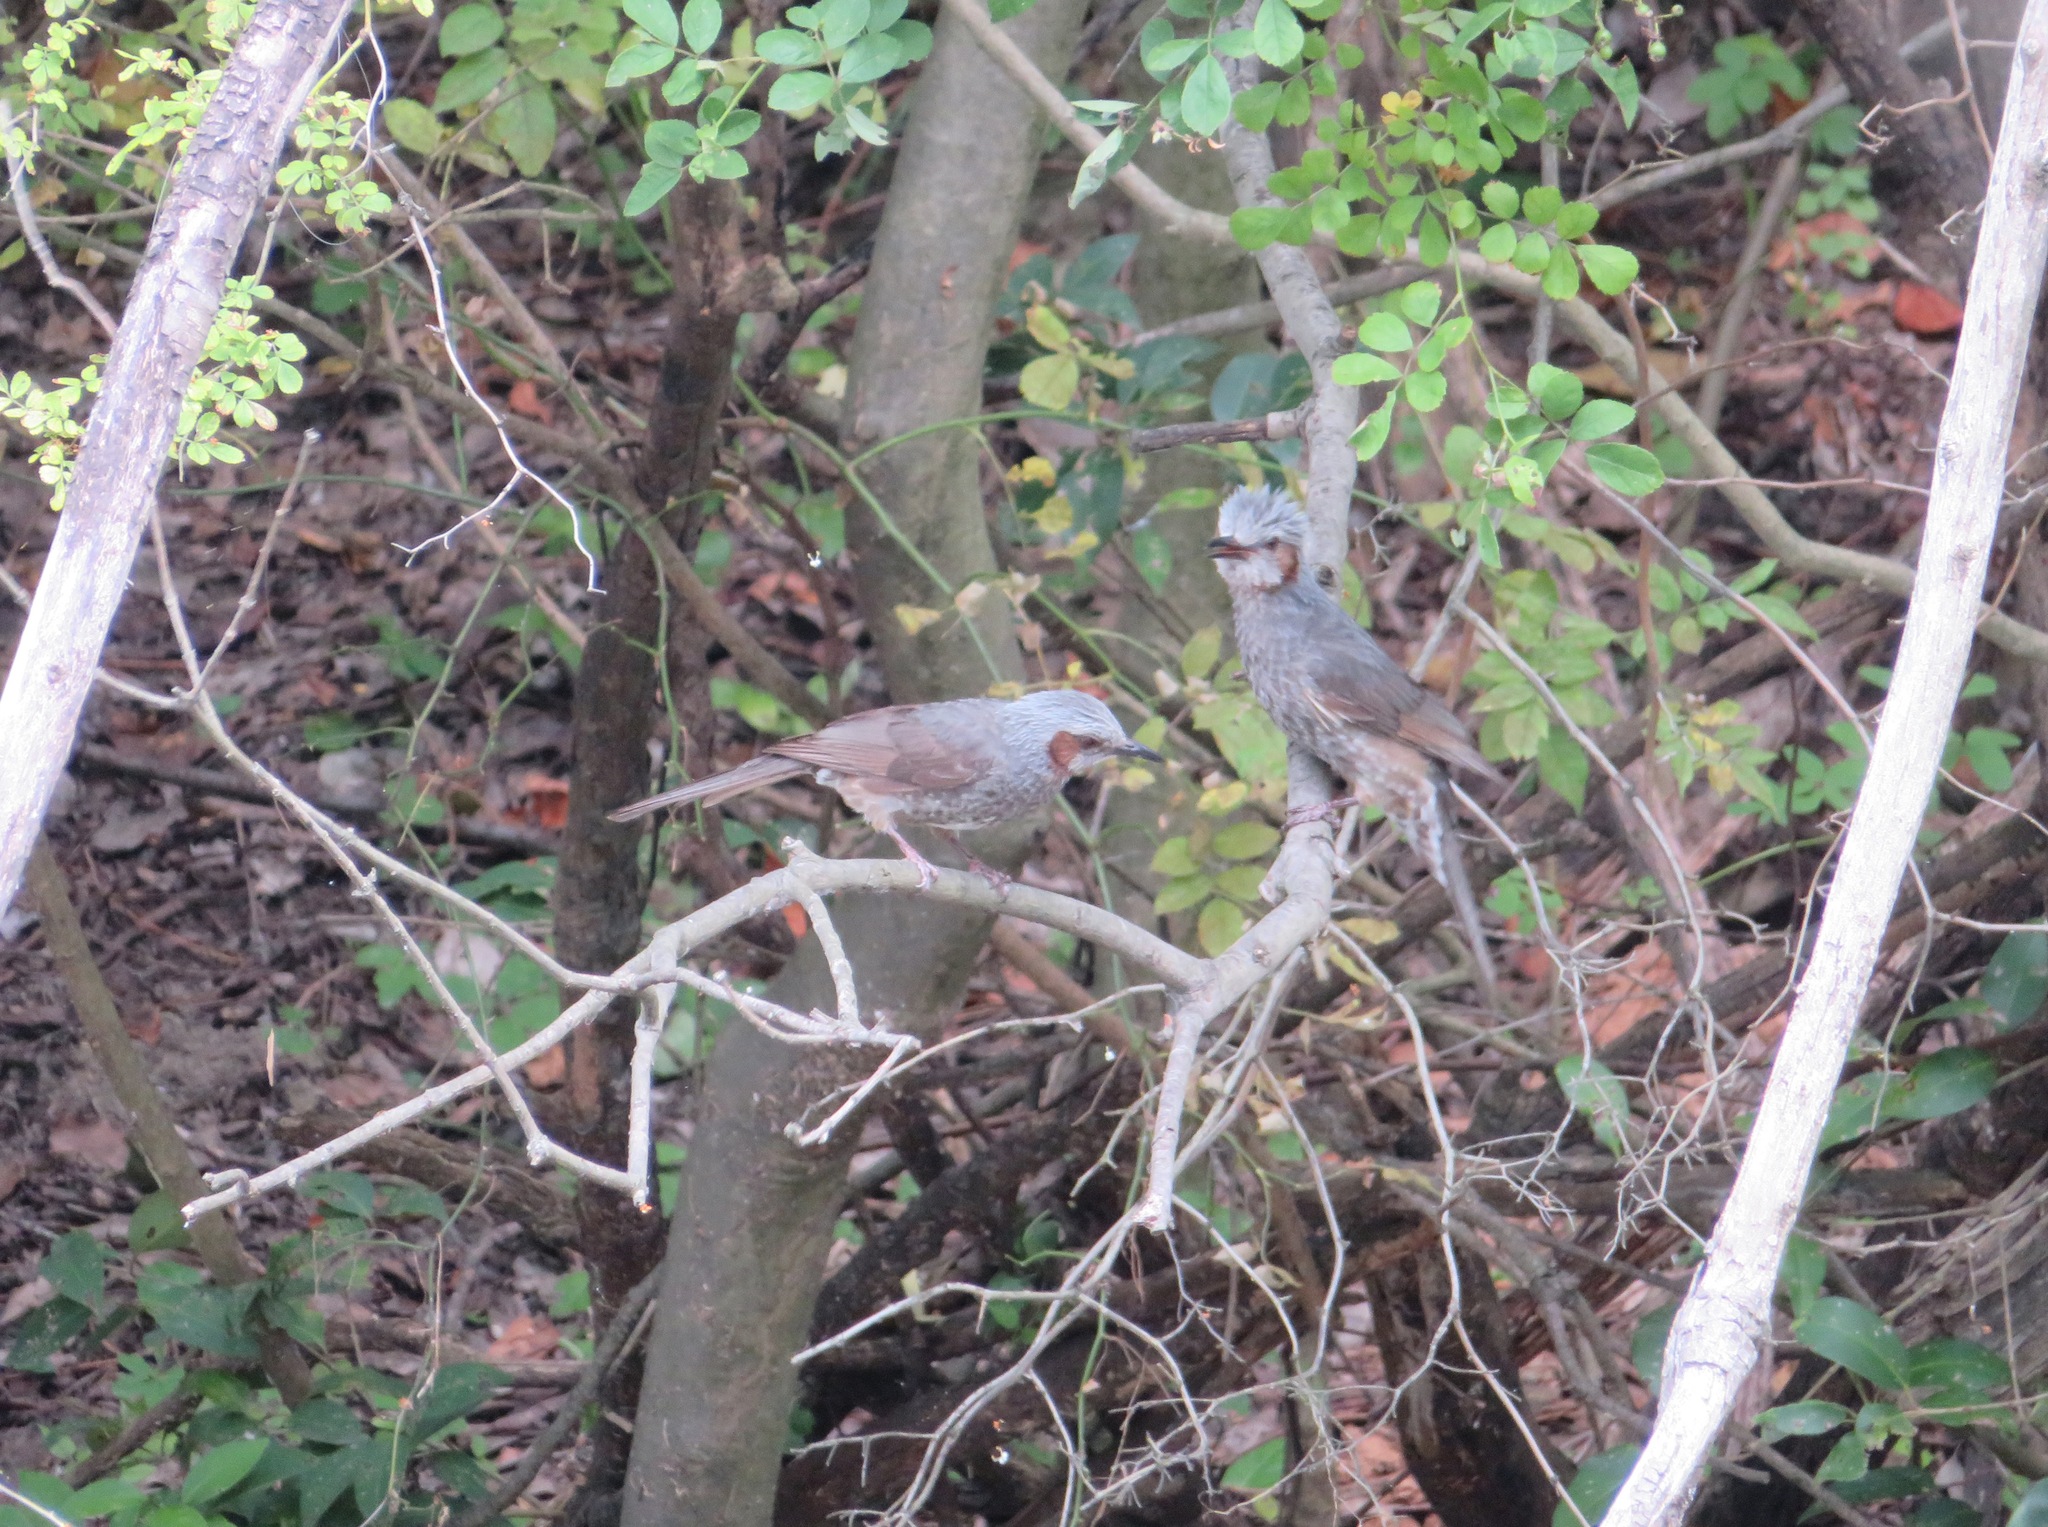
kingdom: Animalia
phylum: Chordata
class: Aves
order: Passeriformes
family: Pycnonotidae
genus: Hypsipetes
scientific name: Hypsipetes amaurotis
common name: Brown-eared bulbul
